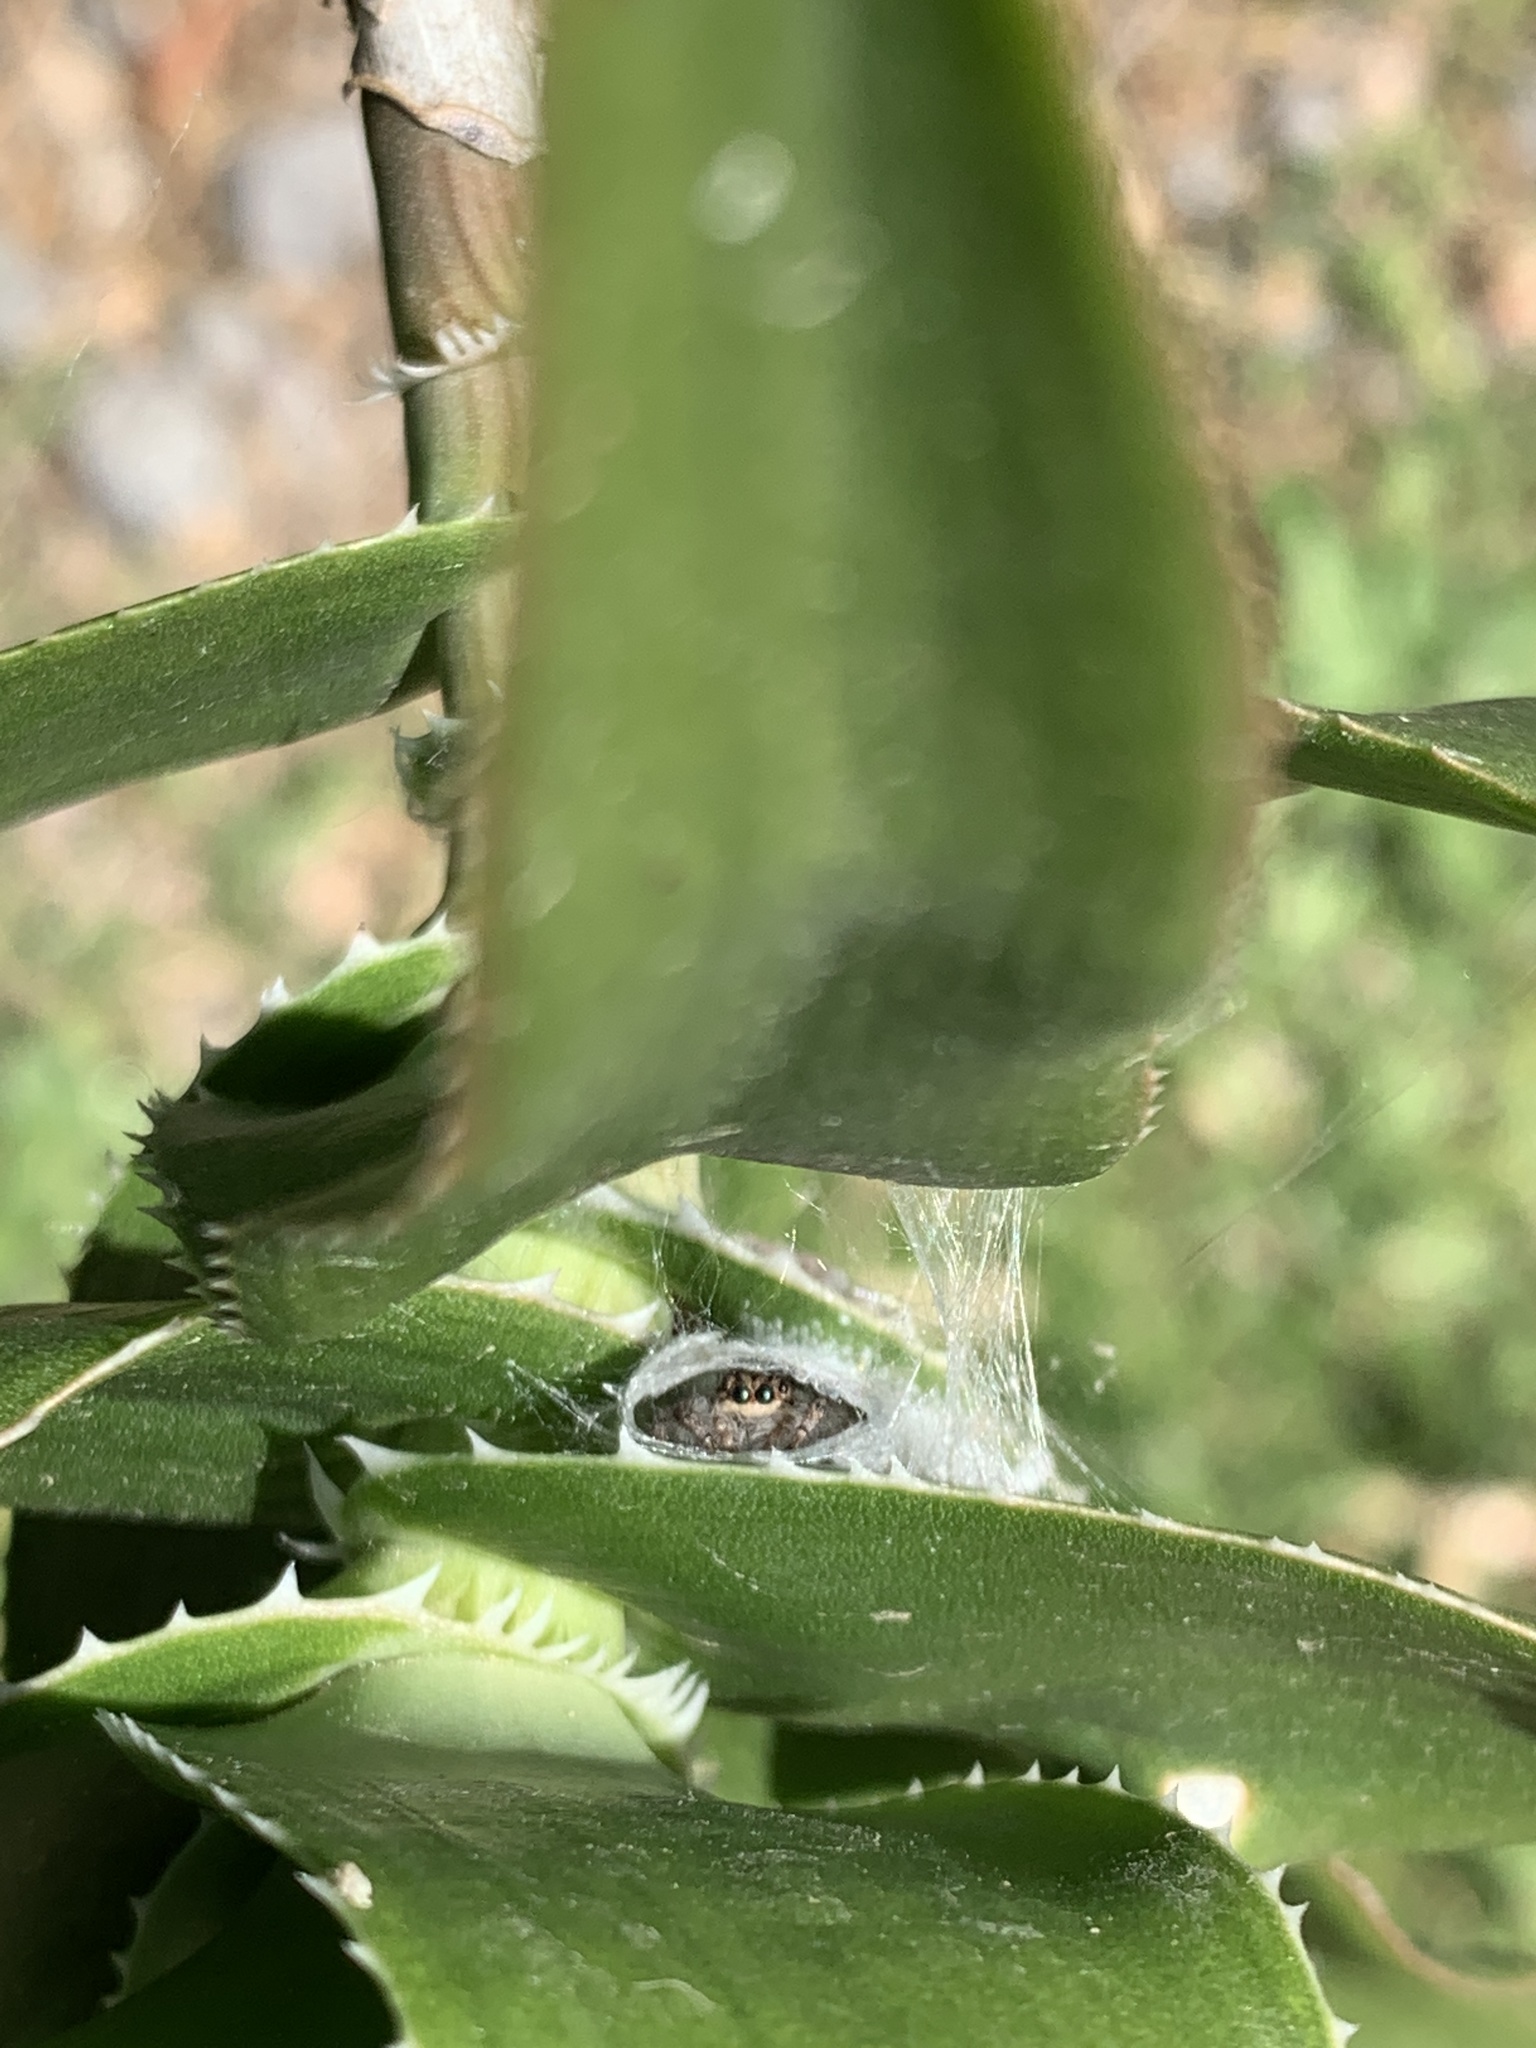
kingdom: Animalia
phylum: Arthropoda
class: Arachnida
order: Araneae
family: Salticidae
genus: Megafreya
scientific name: Megafreya sutrix
